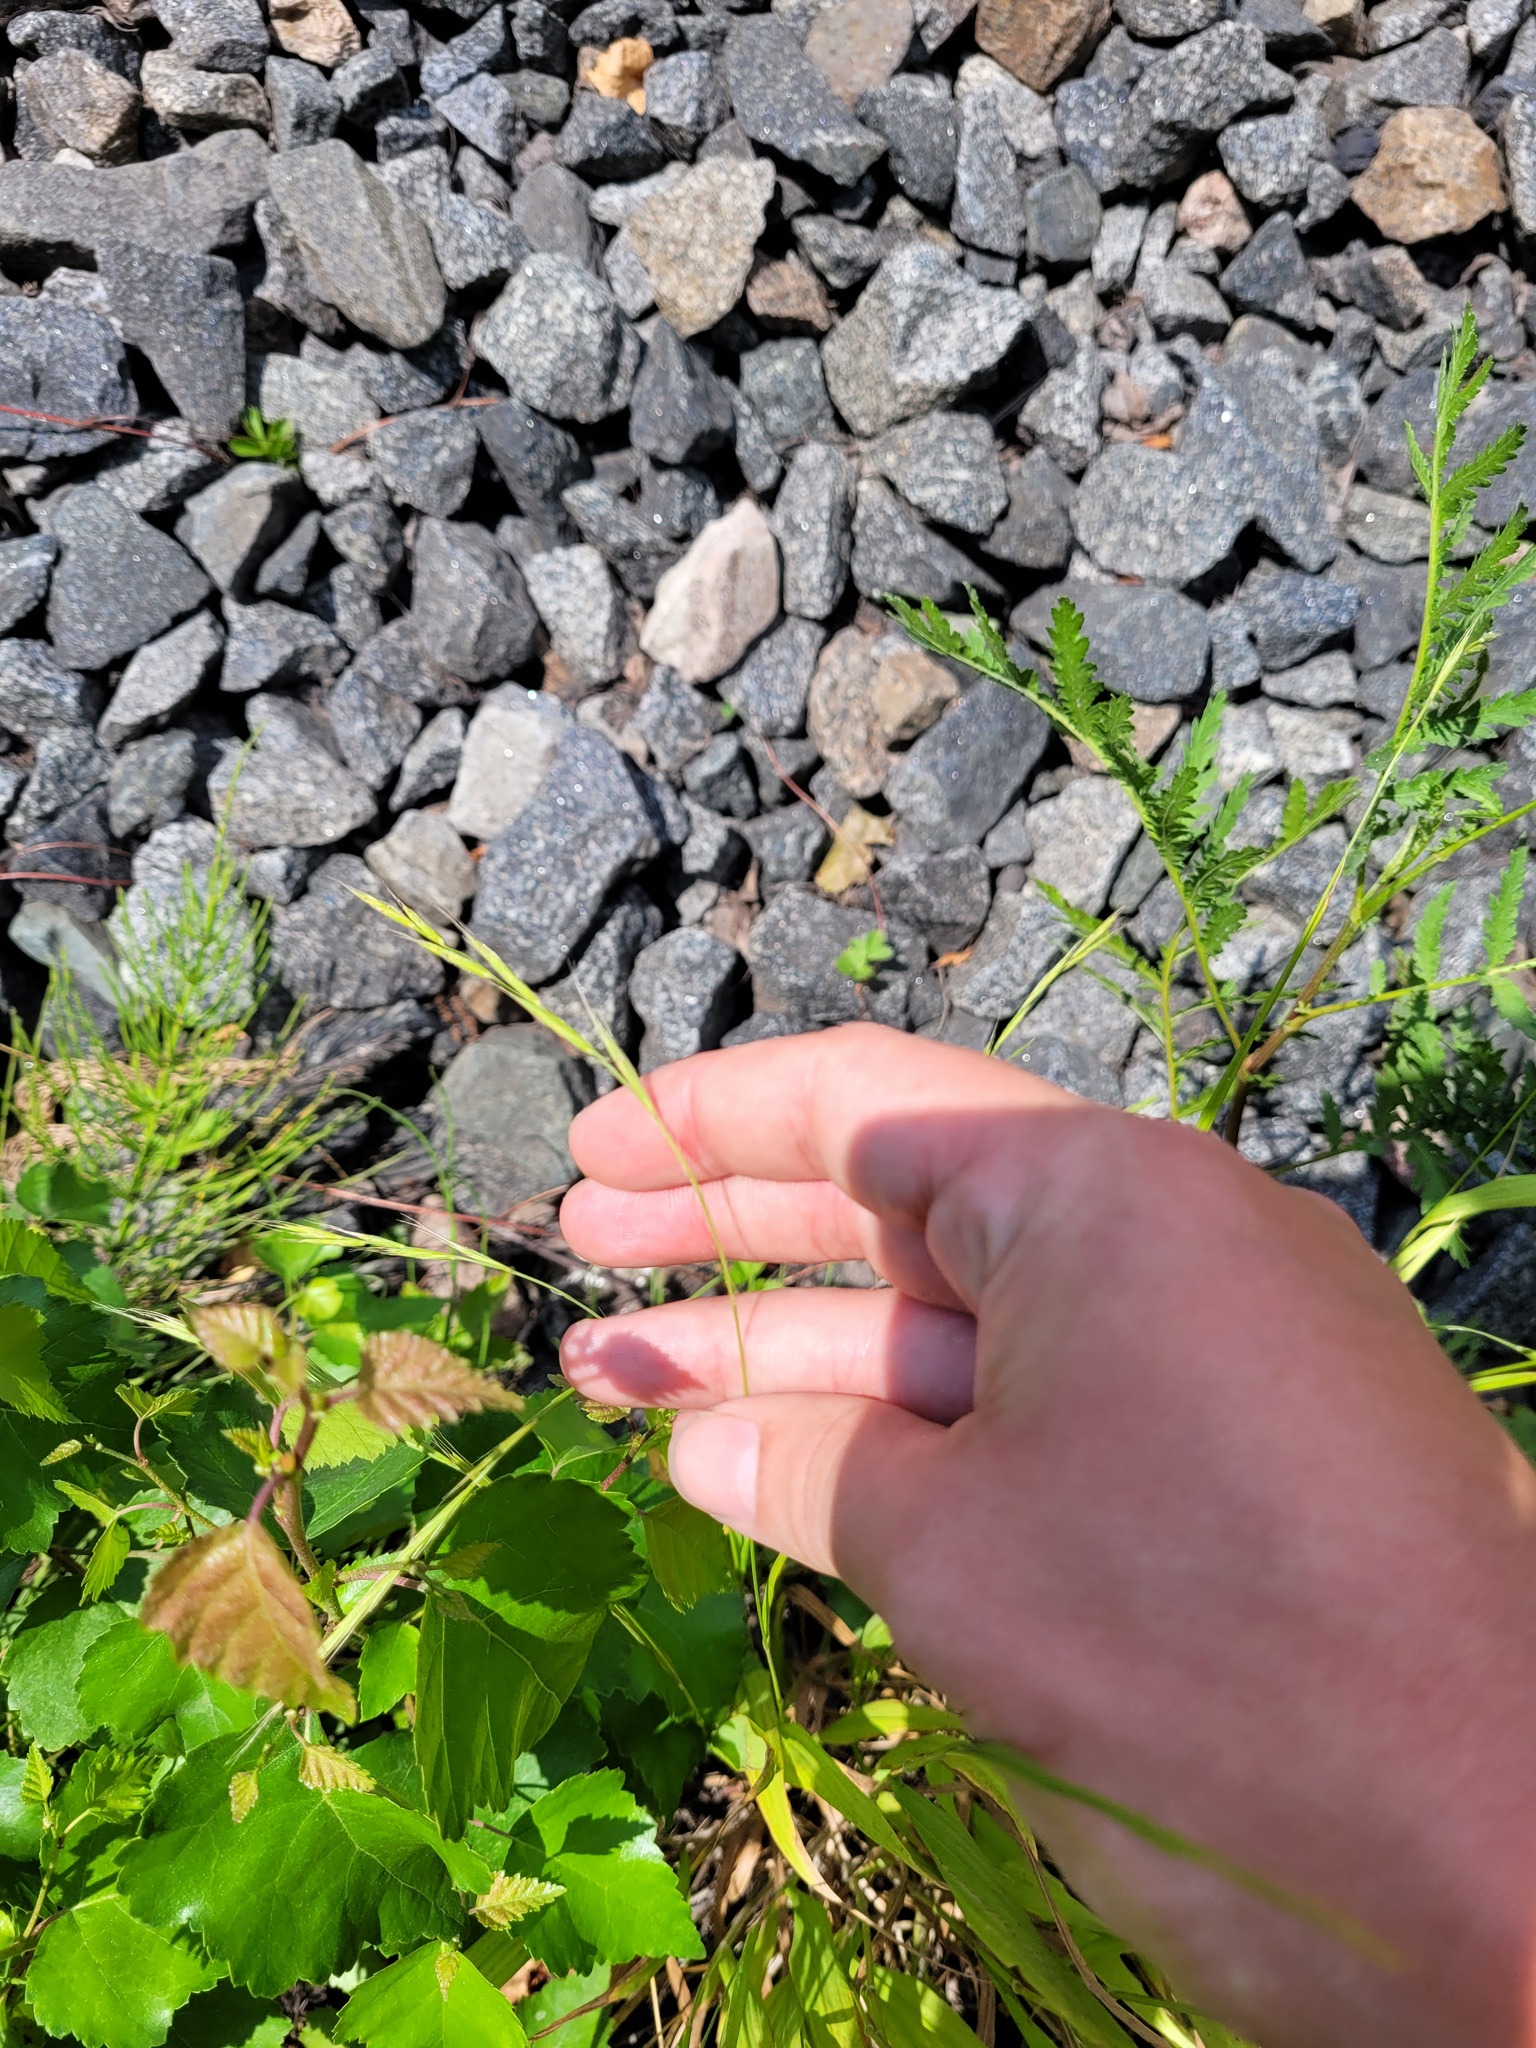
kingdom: Plantae
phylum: Tracheophyta
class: Liliopsida
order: Poales
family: Poaceae
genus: Brachypodium
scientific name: Brachypodium sylvaticum
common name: False-brome
